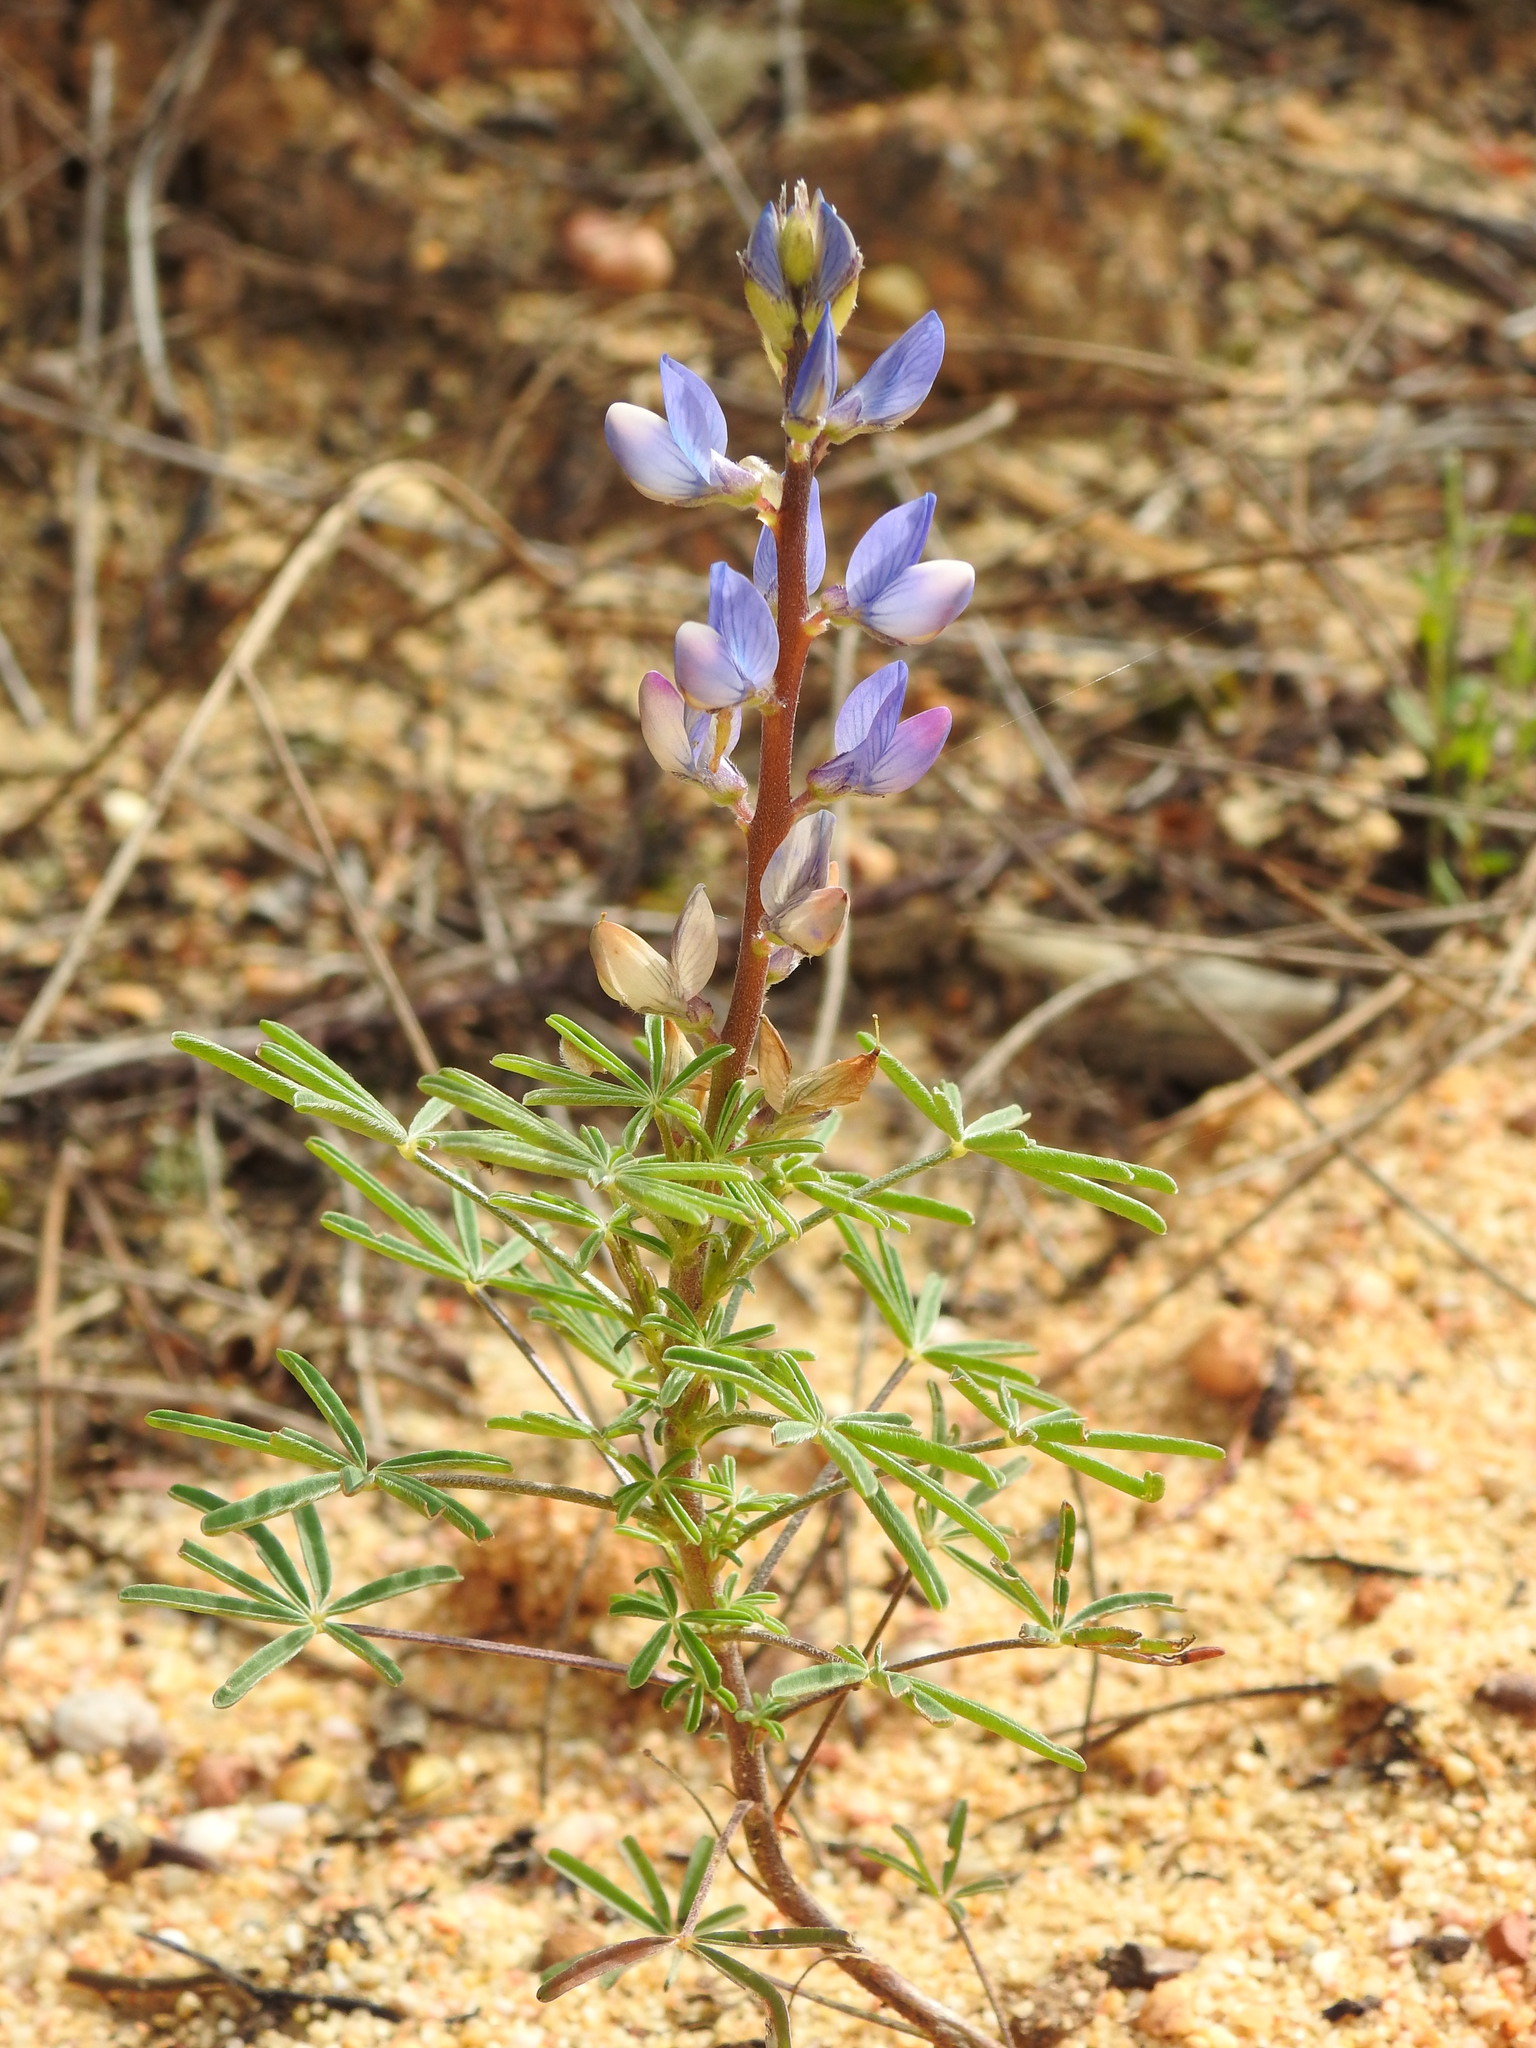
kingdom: Plantae
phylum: Tracheophyta
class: Magnoliopsida
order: Fabales
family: Fabaceae
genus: Lupinus
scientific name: Lupinus angustifolius
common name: Narrow-leaved lupin
